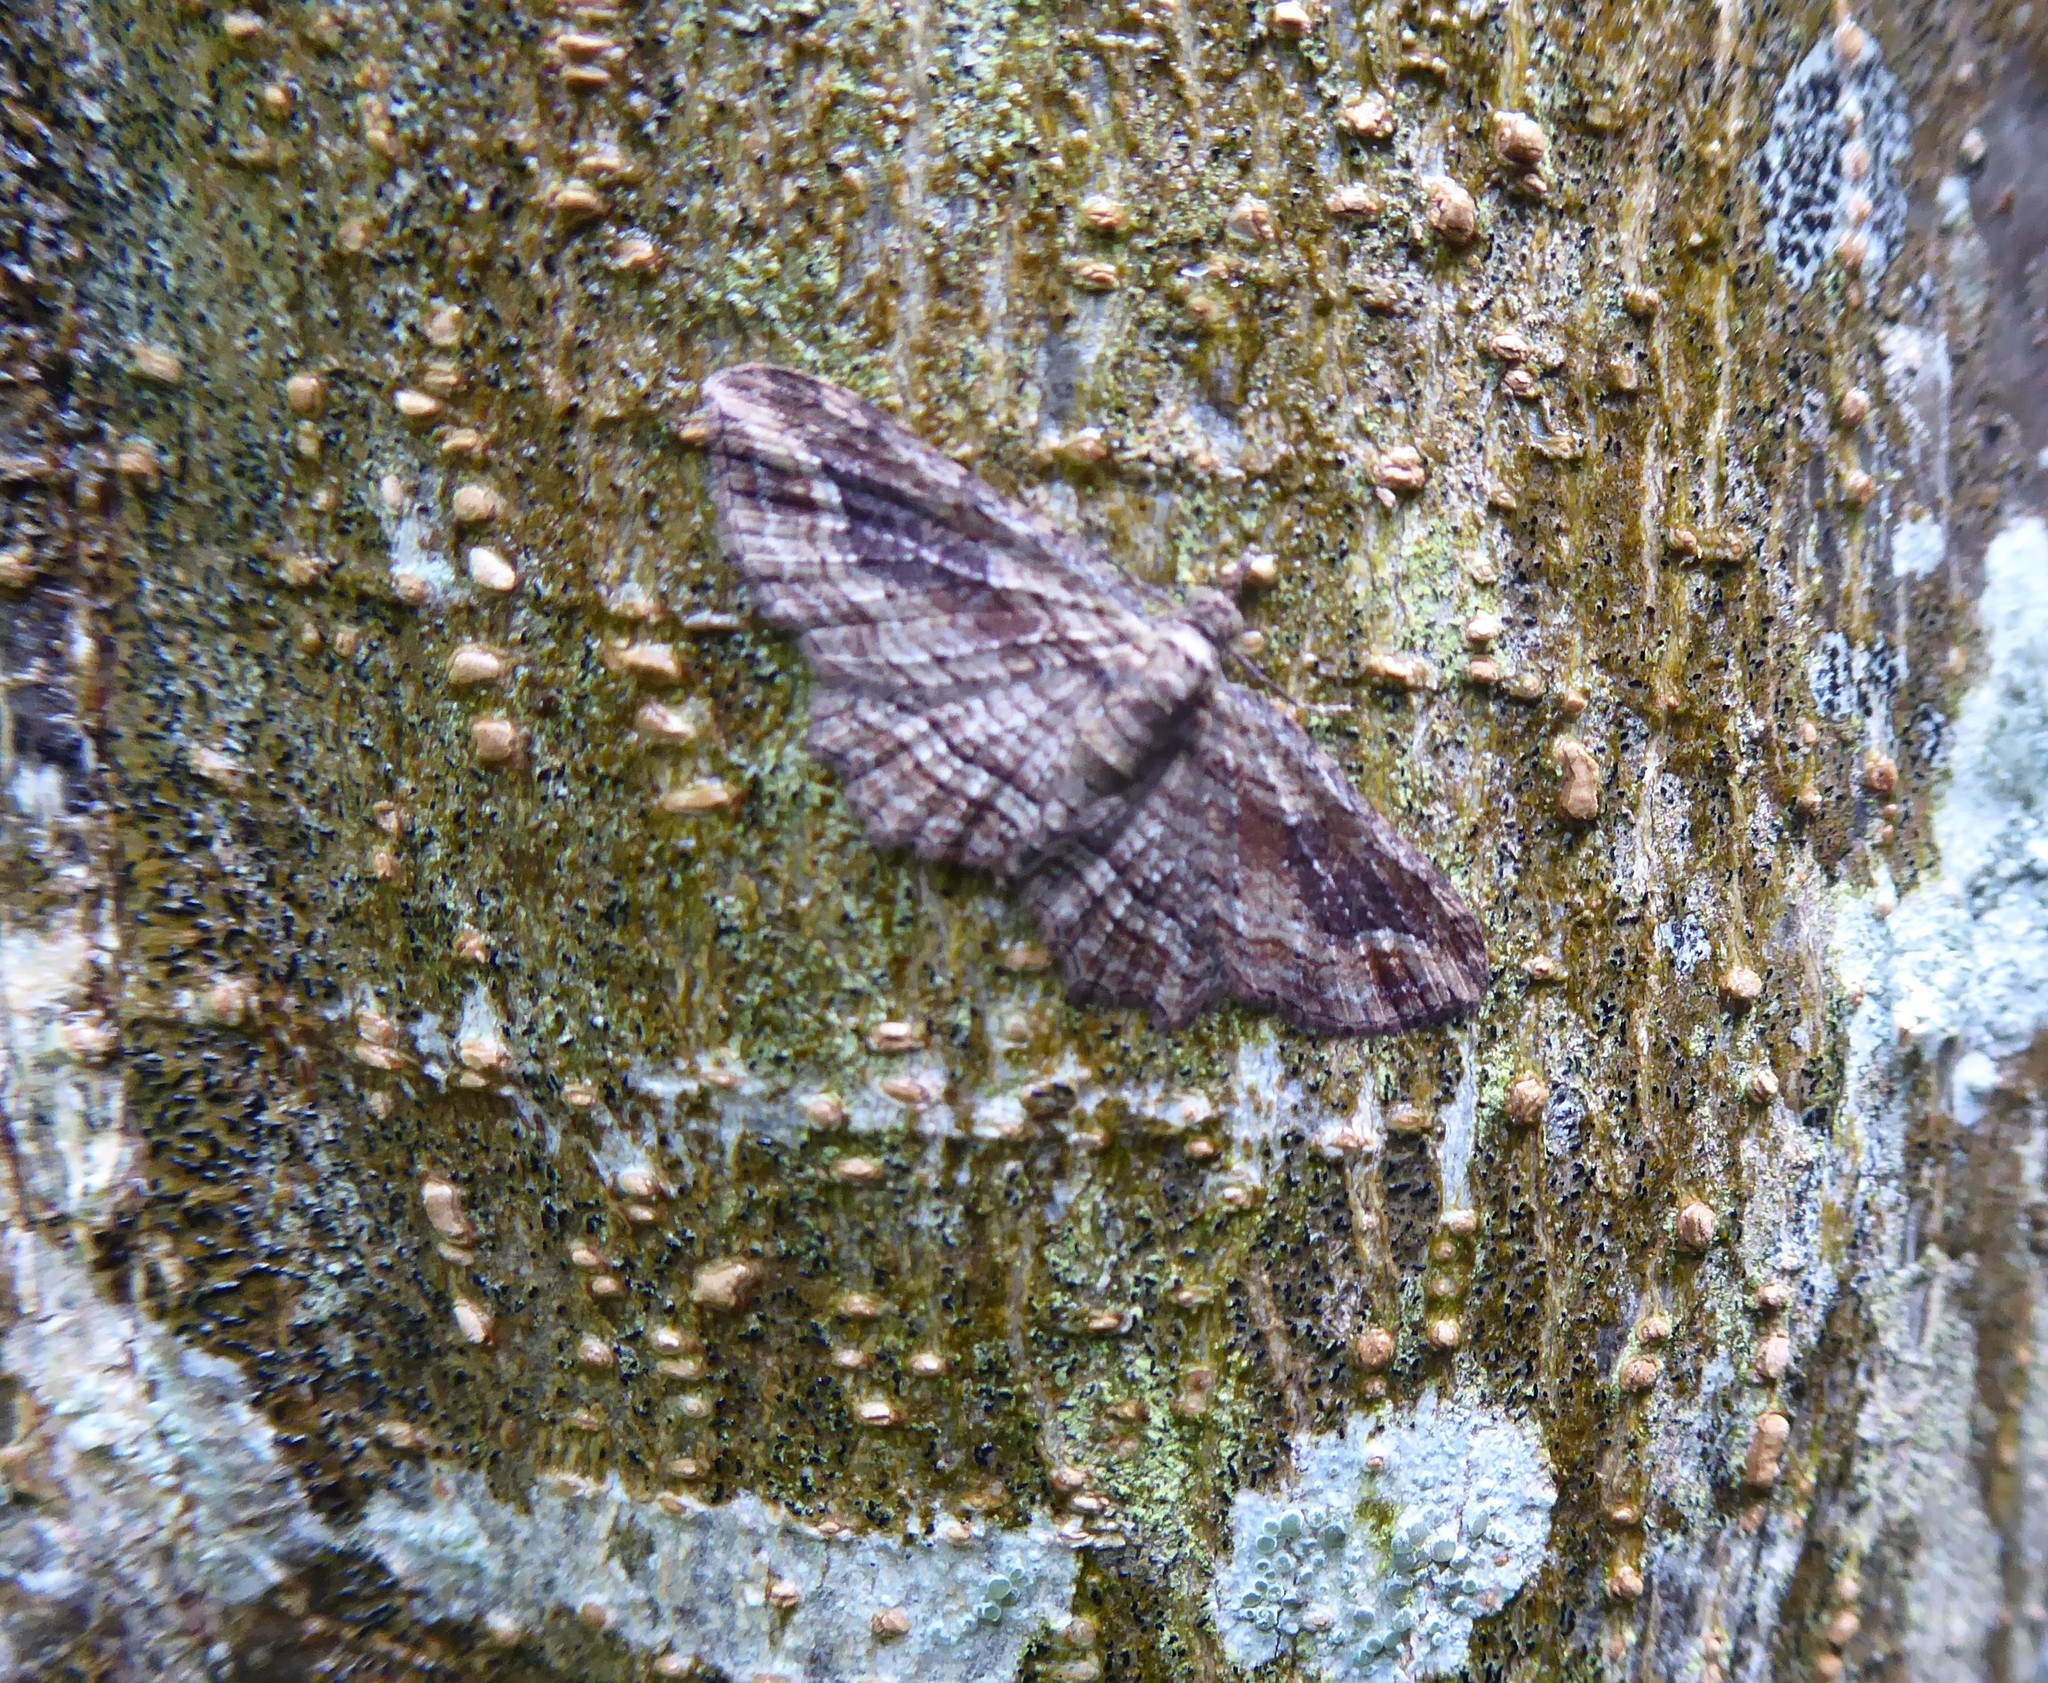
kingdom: Animalia
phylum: Arthropoda
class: Insecta
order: Lepidoptera
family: Geometridae
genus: Chloroclystis
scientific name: Chloroclystis filata
